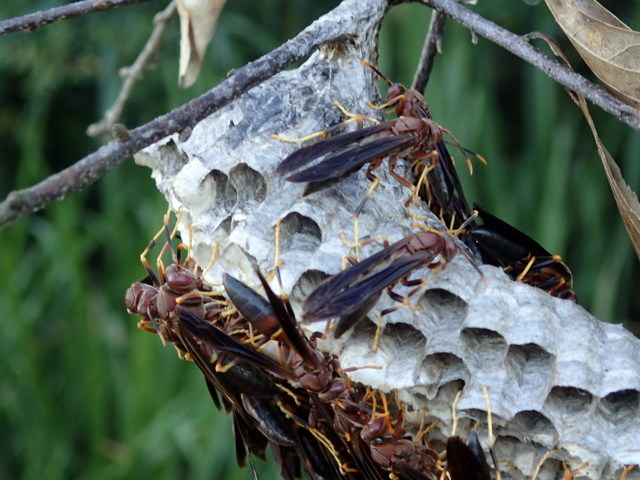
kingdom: Animalia
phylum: Arthropoda
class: Insecta
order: Hymenoptera
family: Eumenidae
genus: Polistes
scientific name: Polistes annularis
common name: Ringed paper wasp
